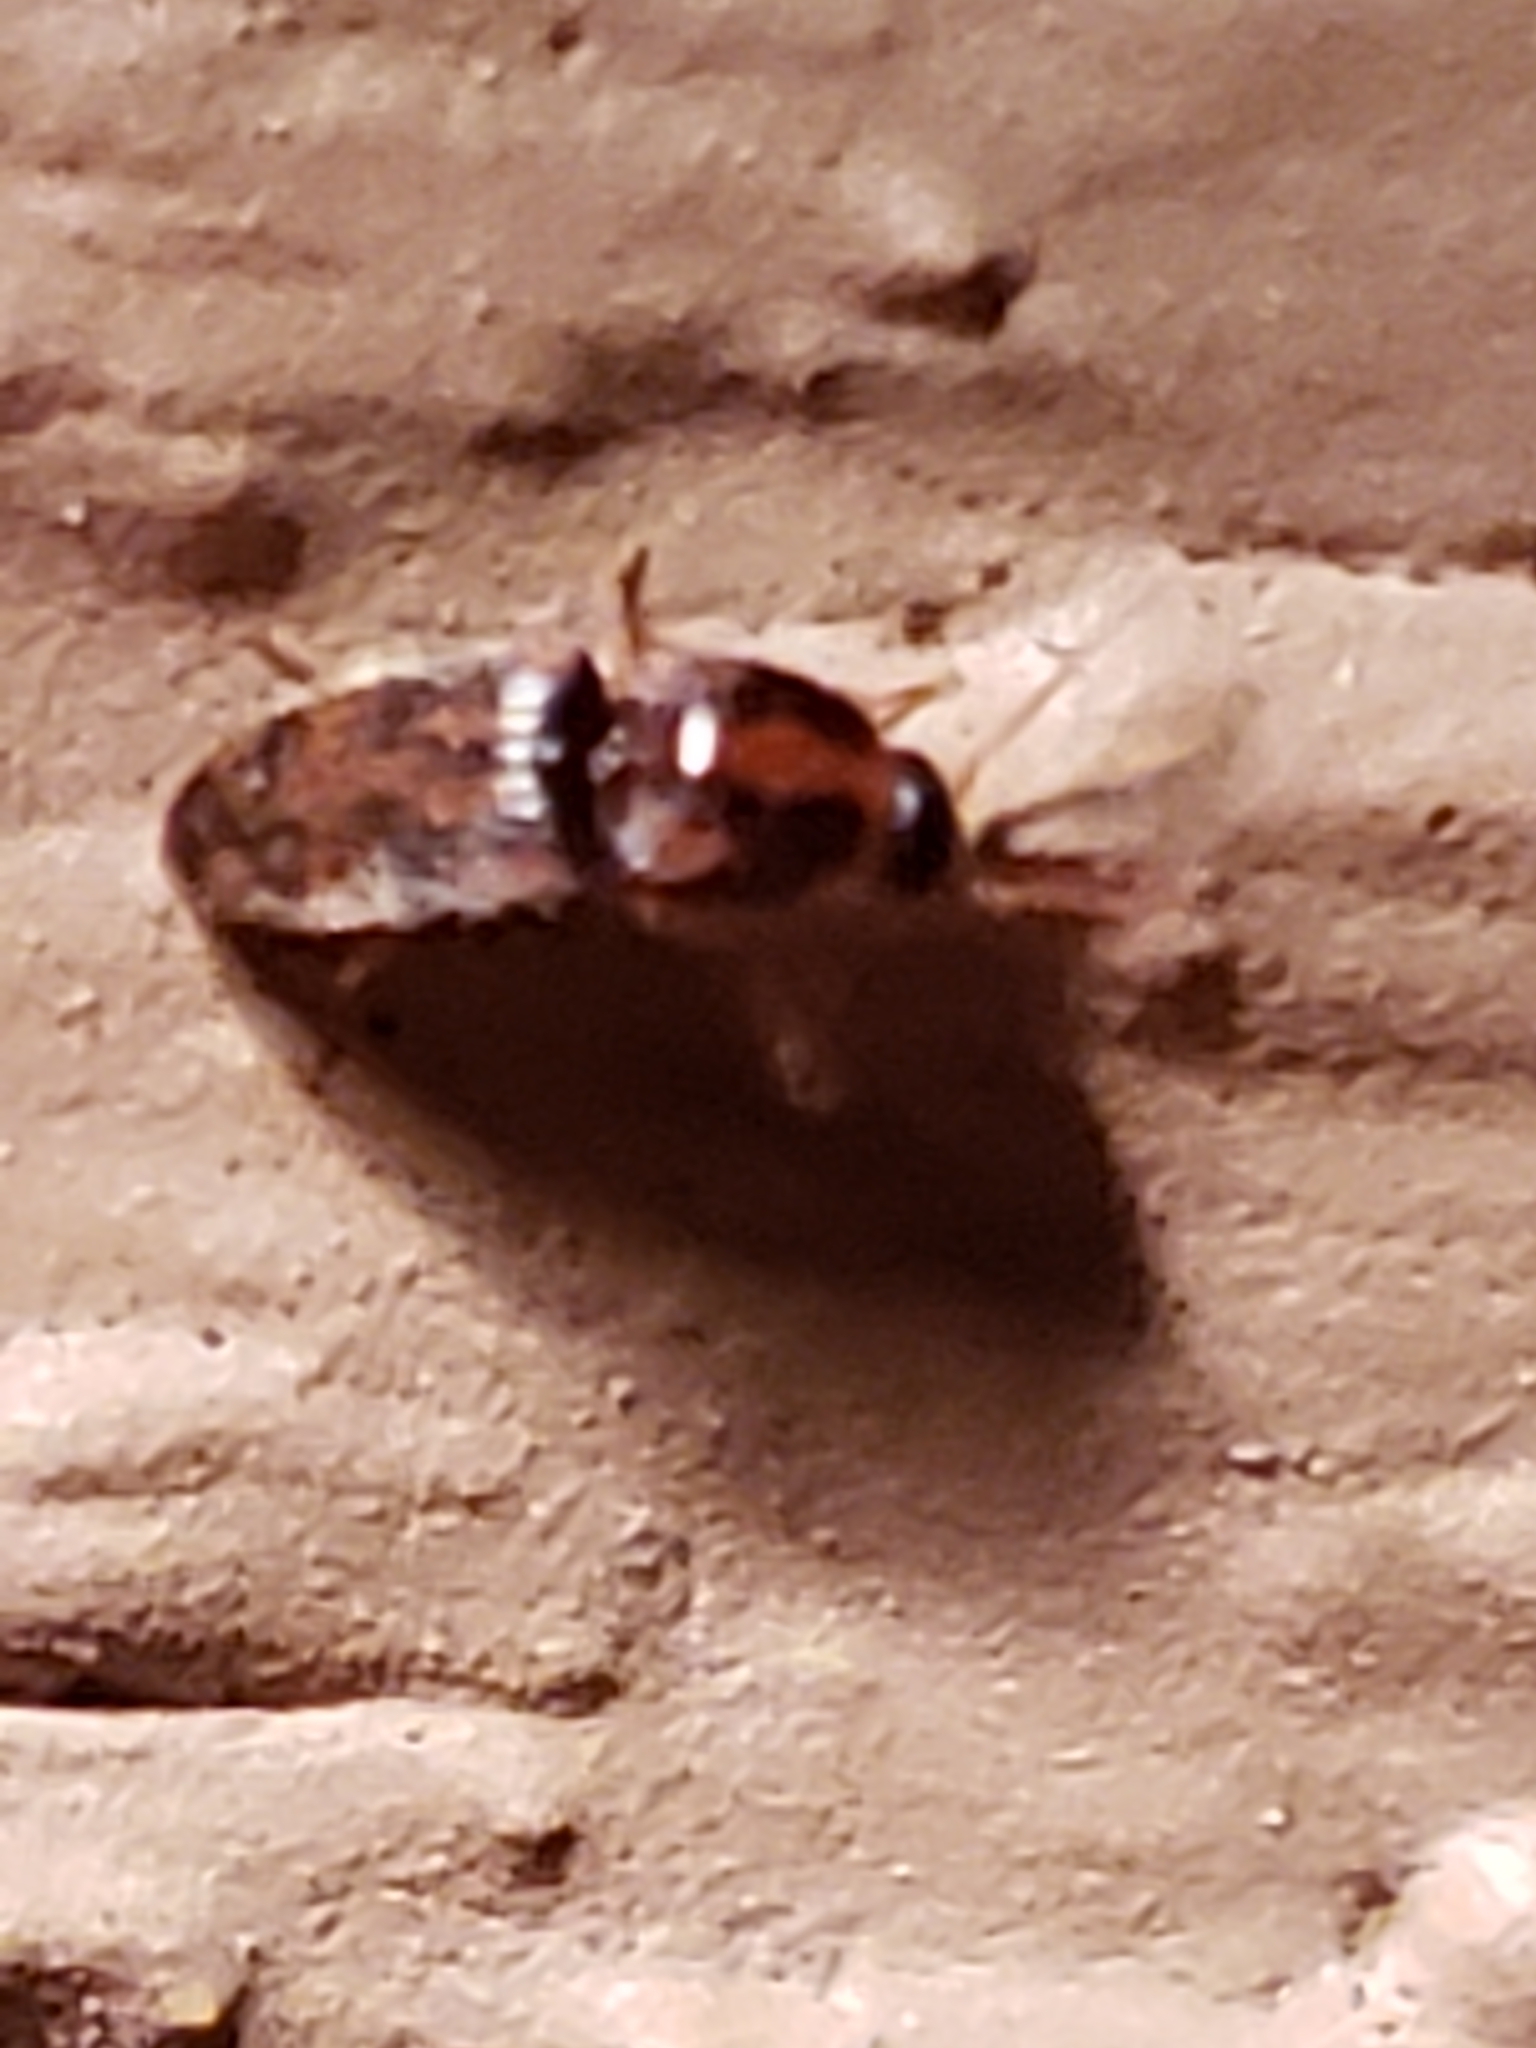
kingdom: Animalia
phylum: Arthropoda
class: Insecta
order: Coleoptera
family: Elateridae
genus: Monocrepidius
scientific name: Monocrepidius bellus
